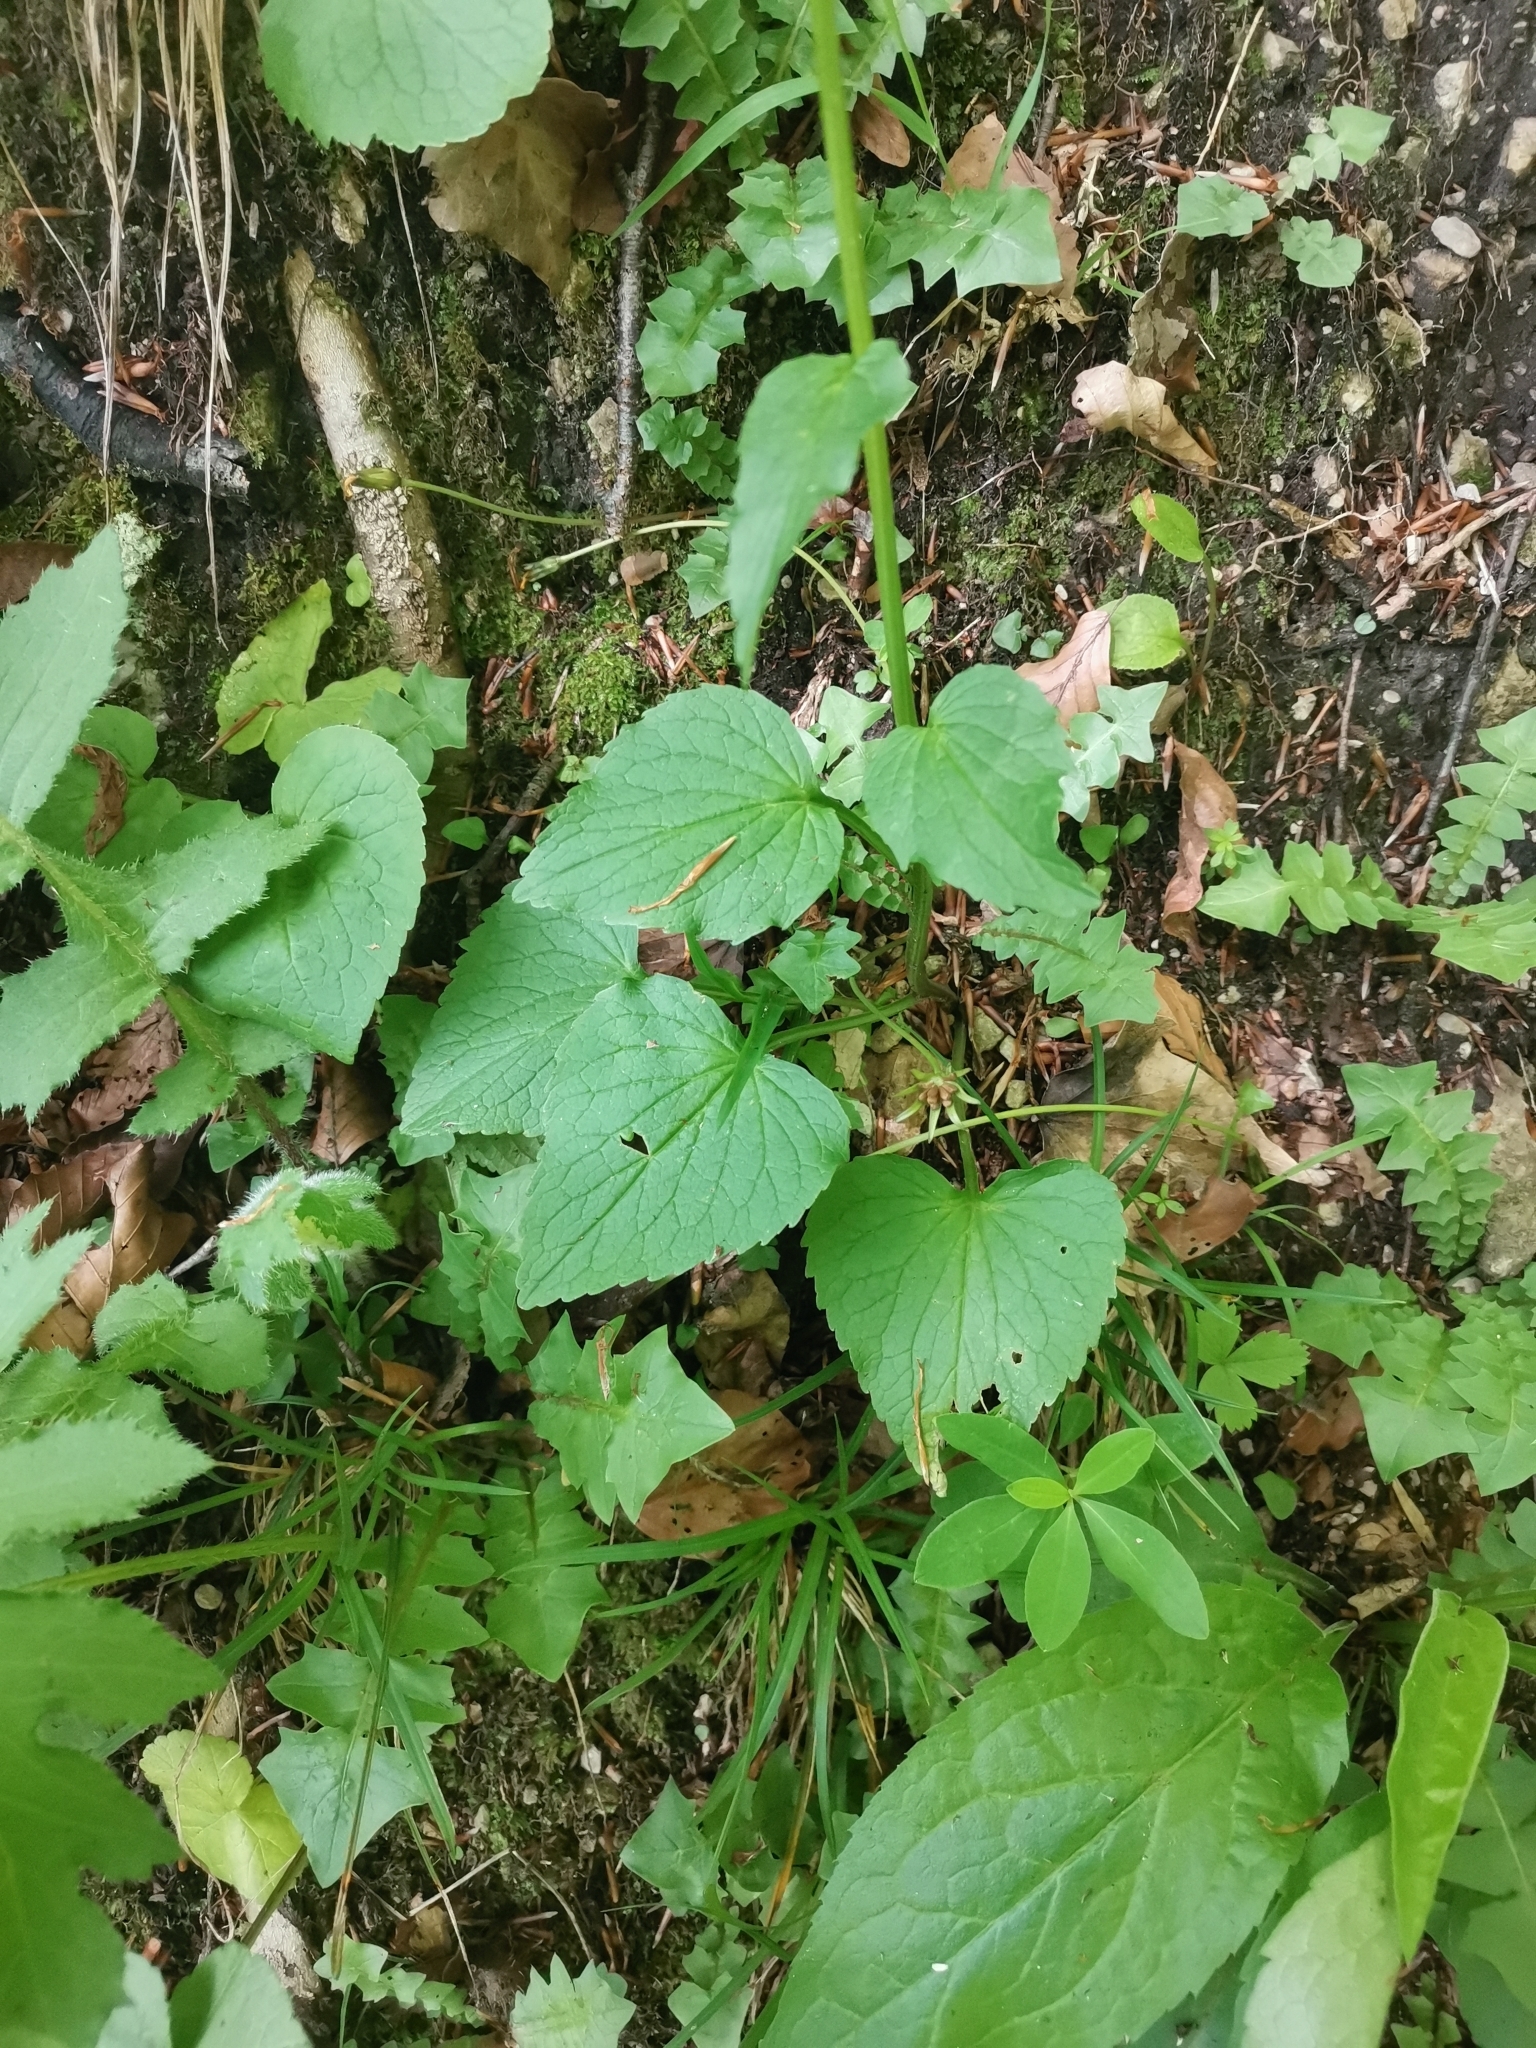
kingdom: Plantae
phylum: Tracheophyta
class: Magnoliopsida
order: Asterales
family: Campanulaceae
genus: Phyteuma
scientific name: Phyteuma spicatum
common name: Spiked rampion
